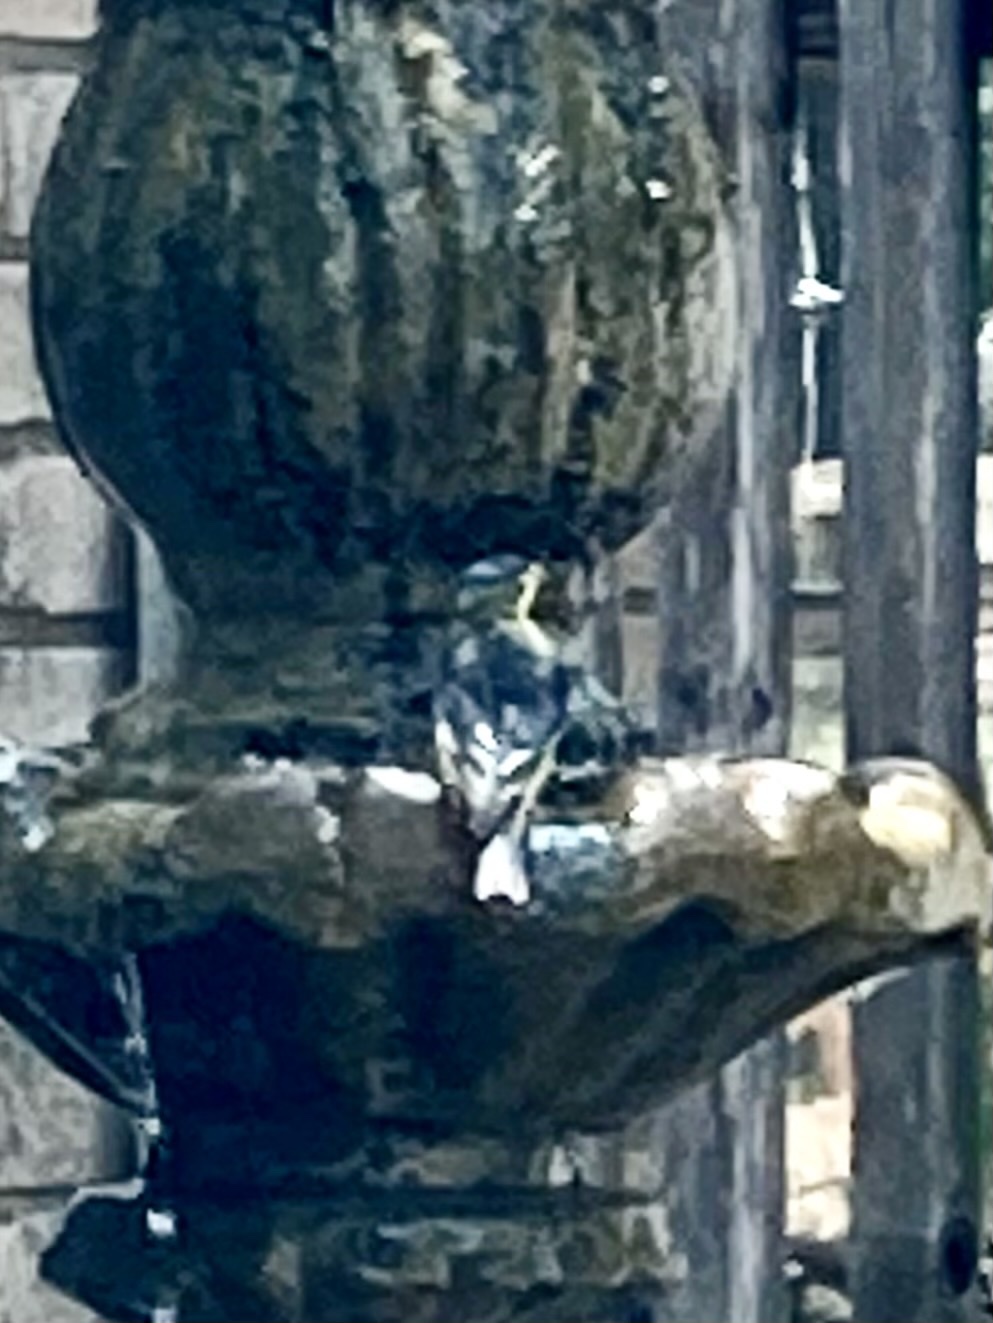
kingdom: Animalia
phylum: Chordata
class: Aves
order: Passeriformes
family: Fringillidae
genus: Spinus
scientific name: Spinus psaltria
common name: Lesser goldfinch
